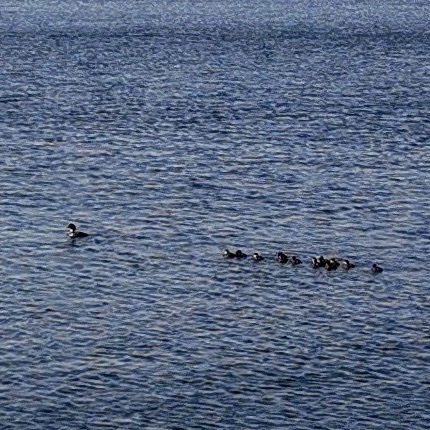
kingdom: Animalia
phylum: Chordata
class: Aves
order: Anseriformes
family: Anatidae
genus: Bucephala
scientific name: Bucephala clangula
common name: Common goldeneye
